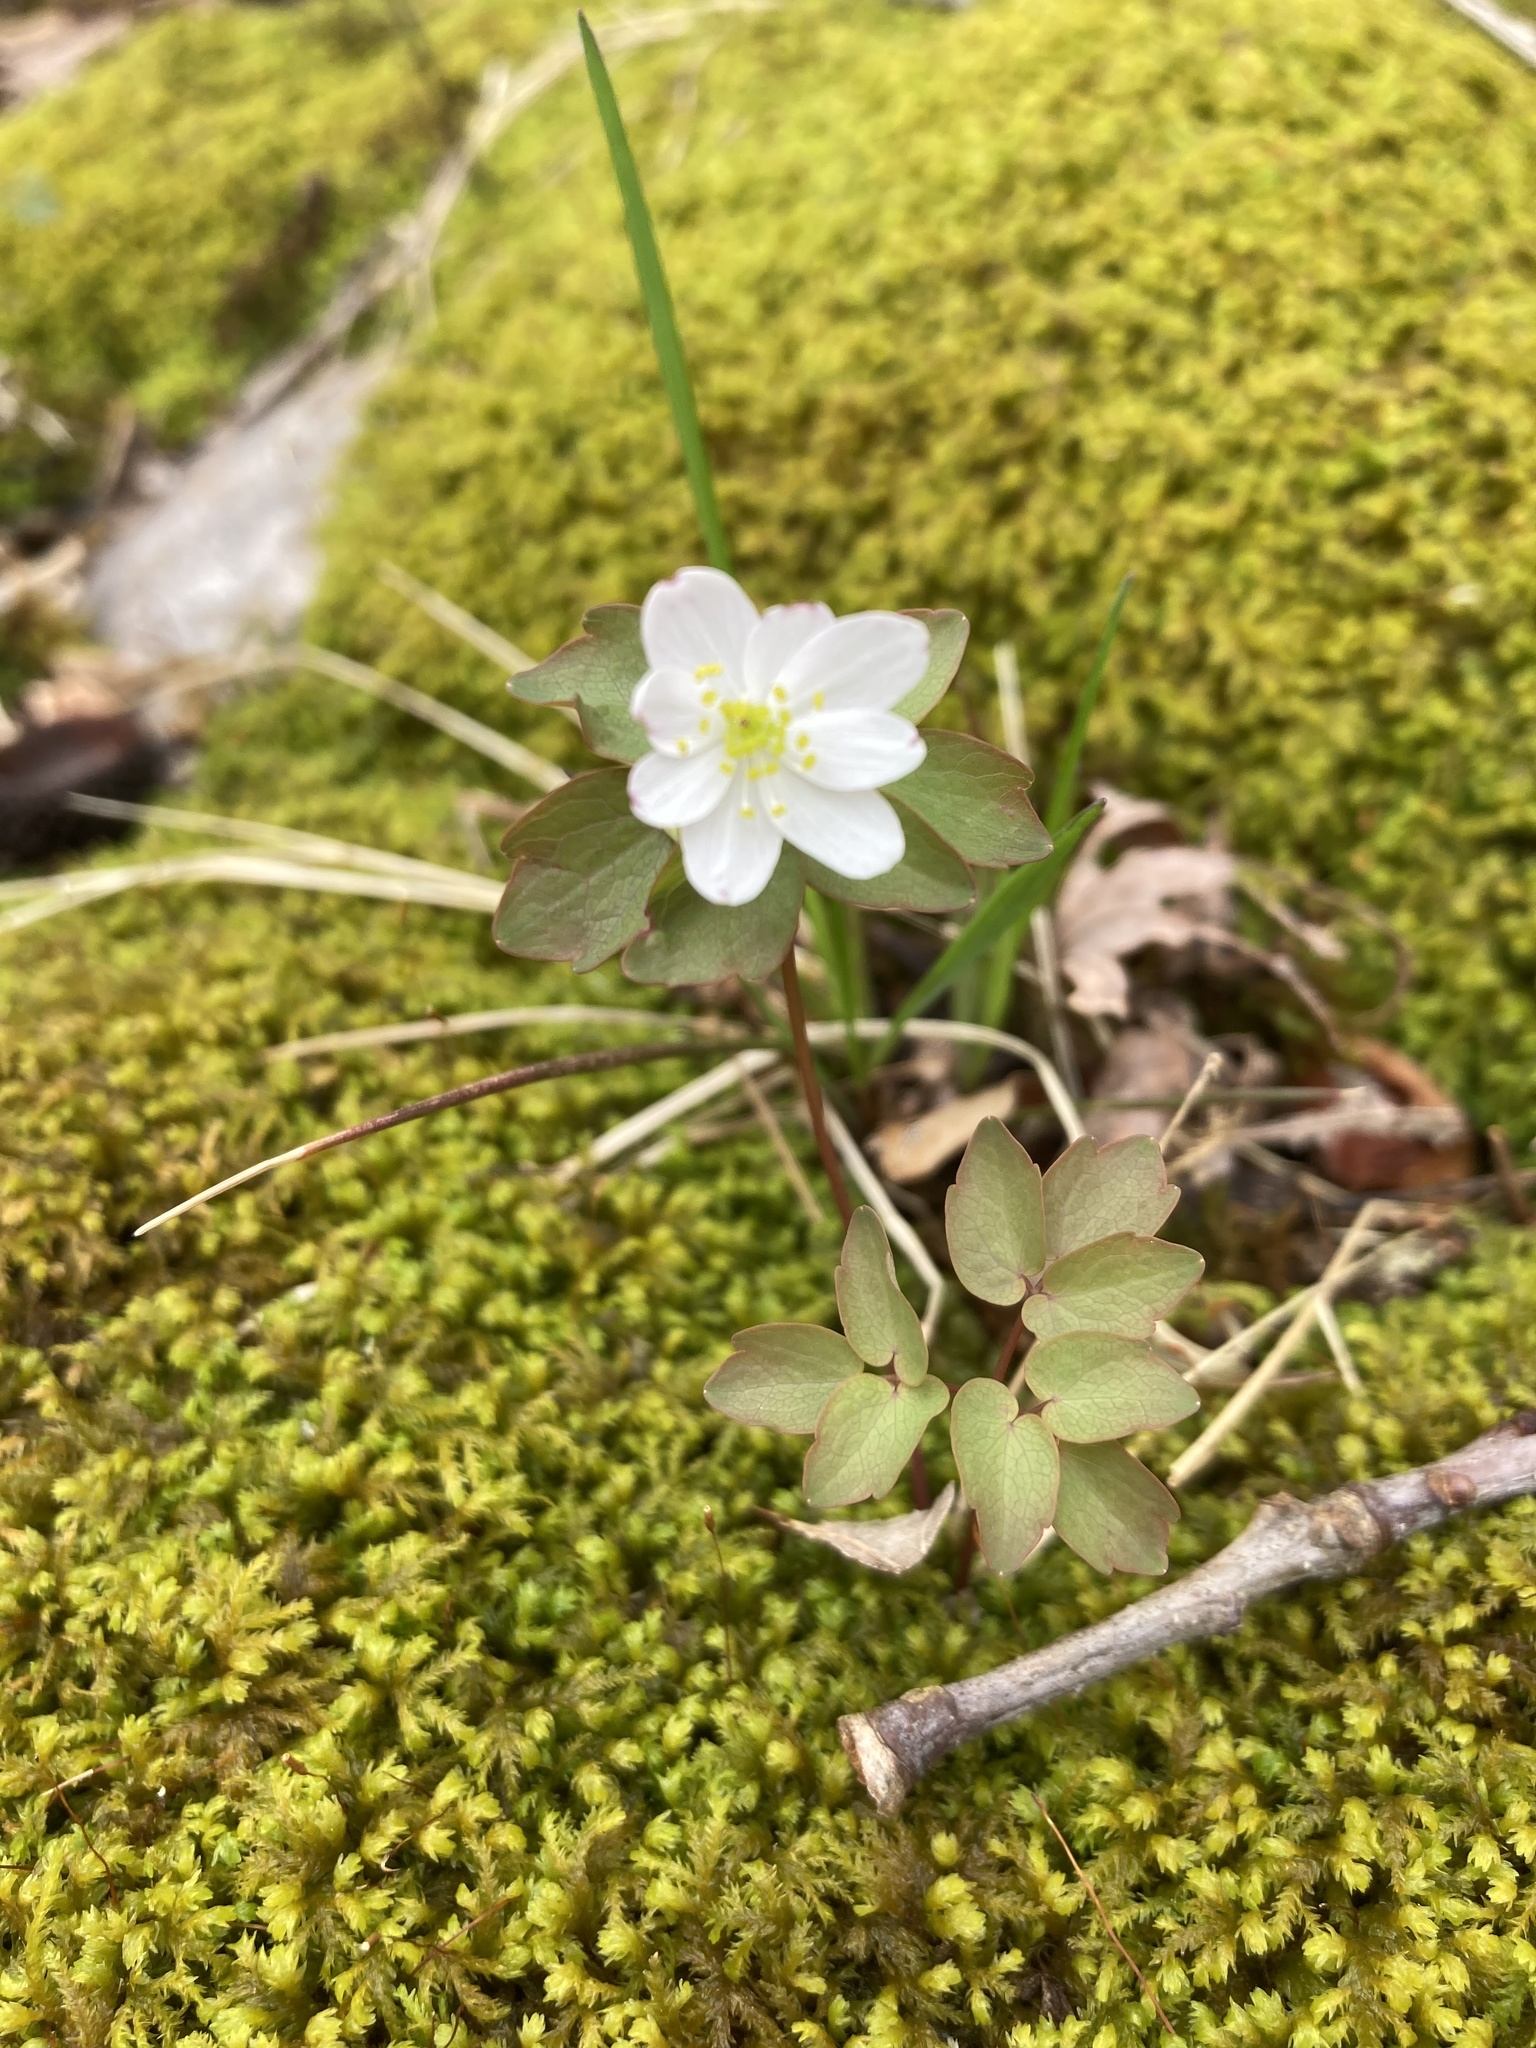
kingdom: Plantae
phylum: Tracheophyta
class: Magnoliopsida
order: Ranunculales
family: Ranunculaceae
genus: Thalictrum
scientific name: Thalictrum thalictroides
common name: Rue-anemone
